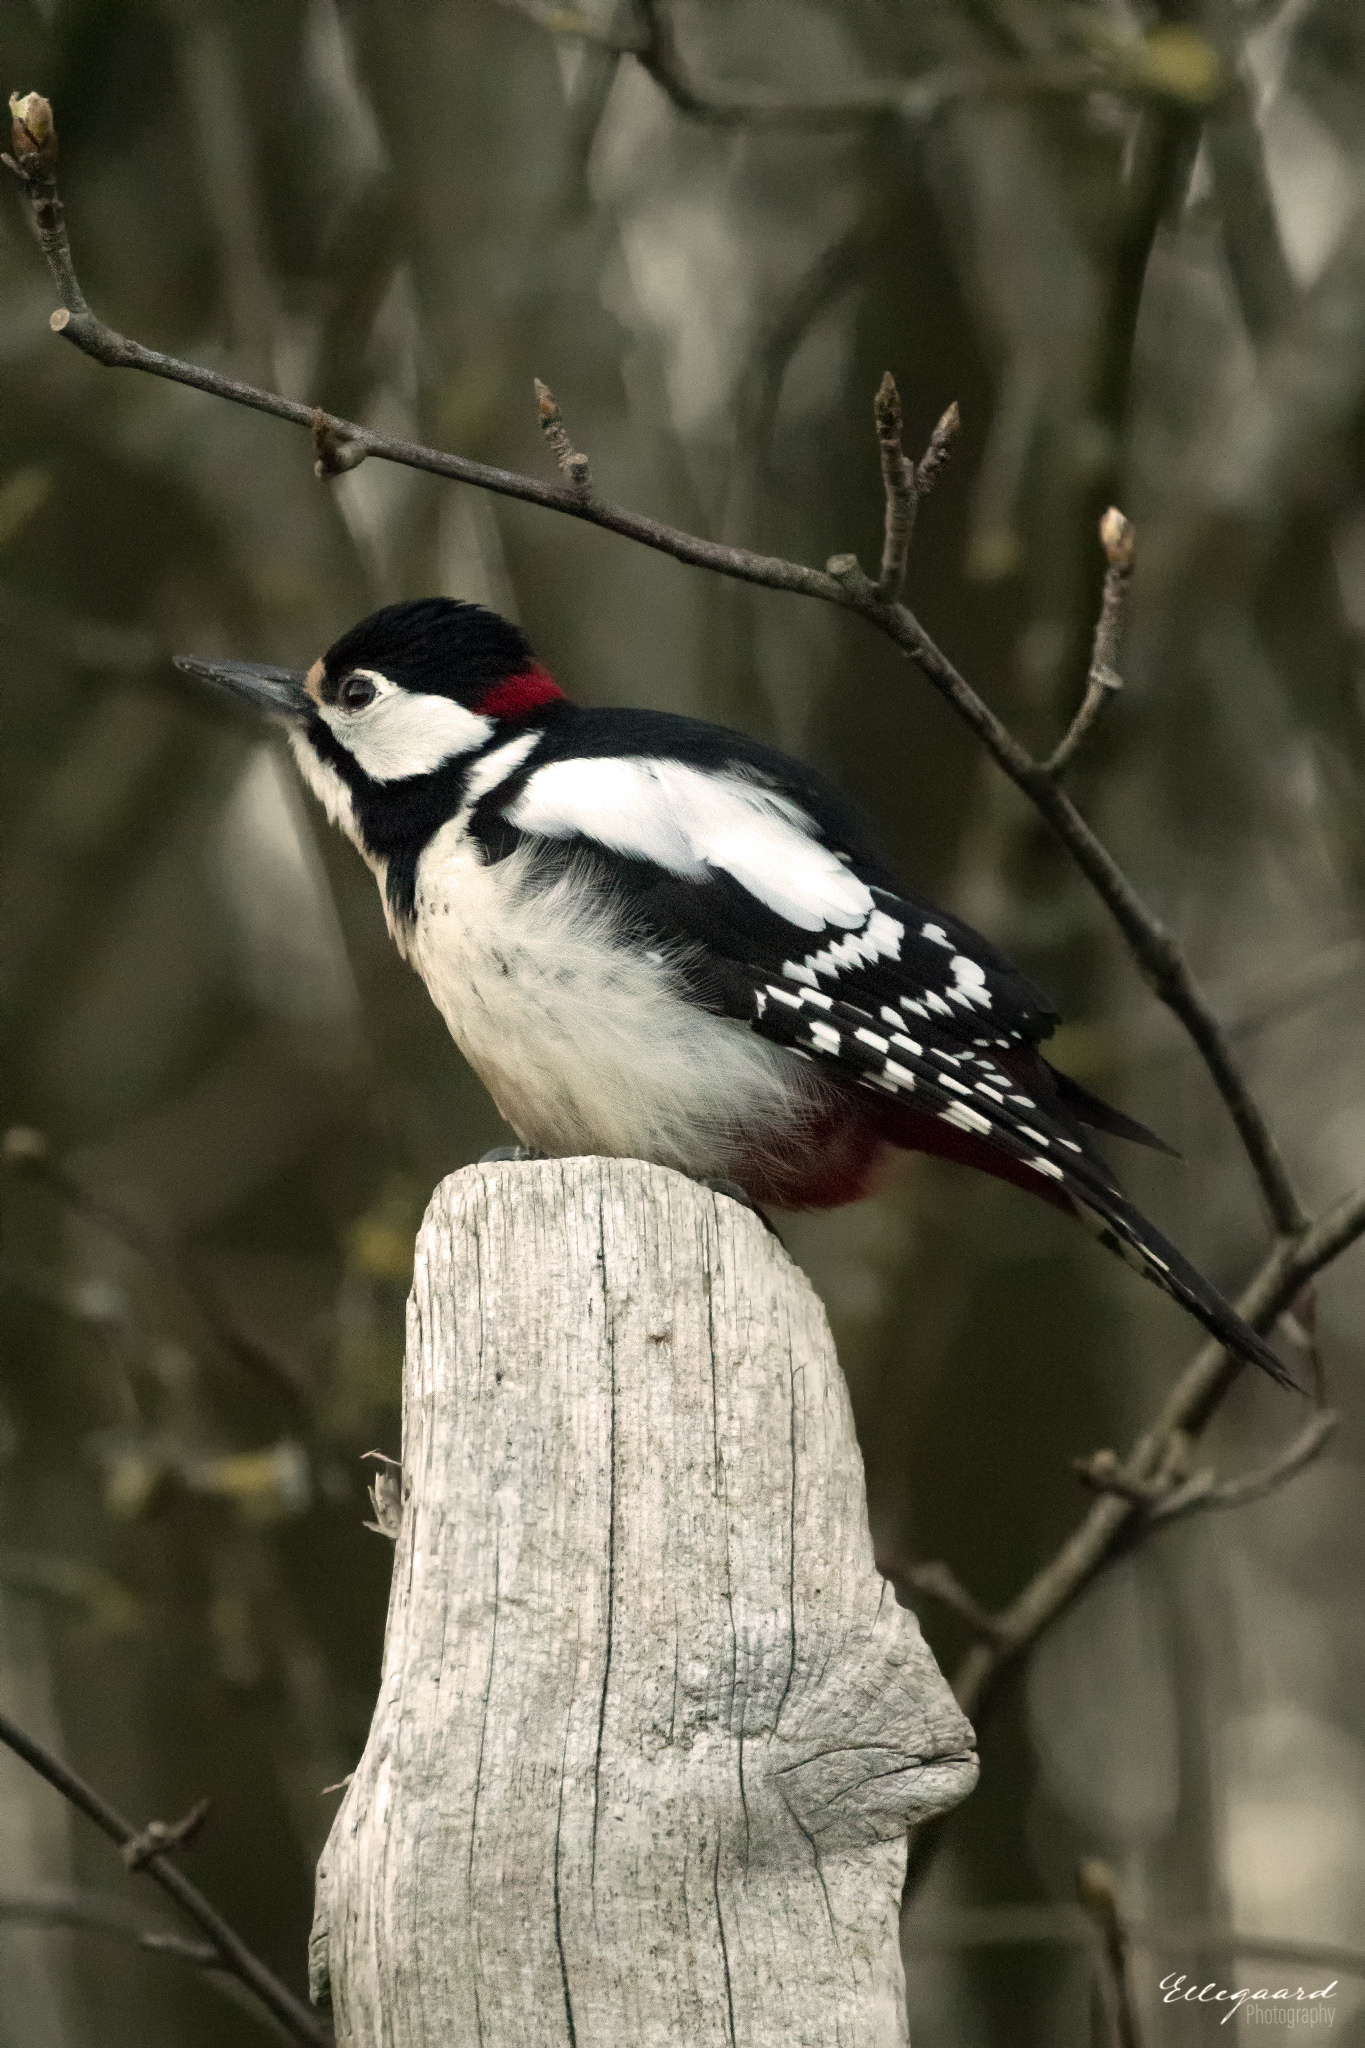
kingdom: Animalia
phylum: Chordata
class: Aves
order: Piciformes
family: Picidae
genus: Dendrocopos
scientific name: Dendrocopos major
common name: Great spotted woodpecker
